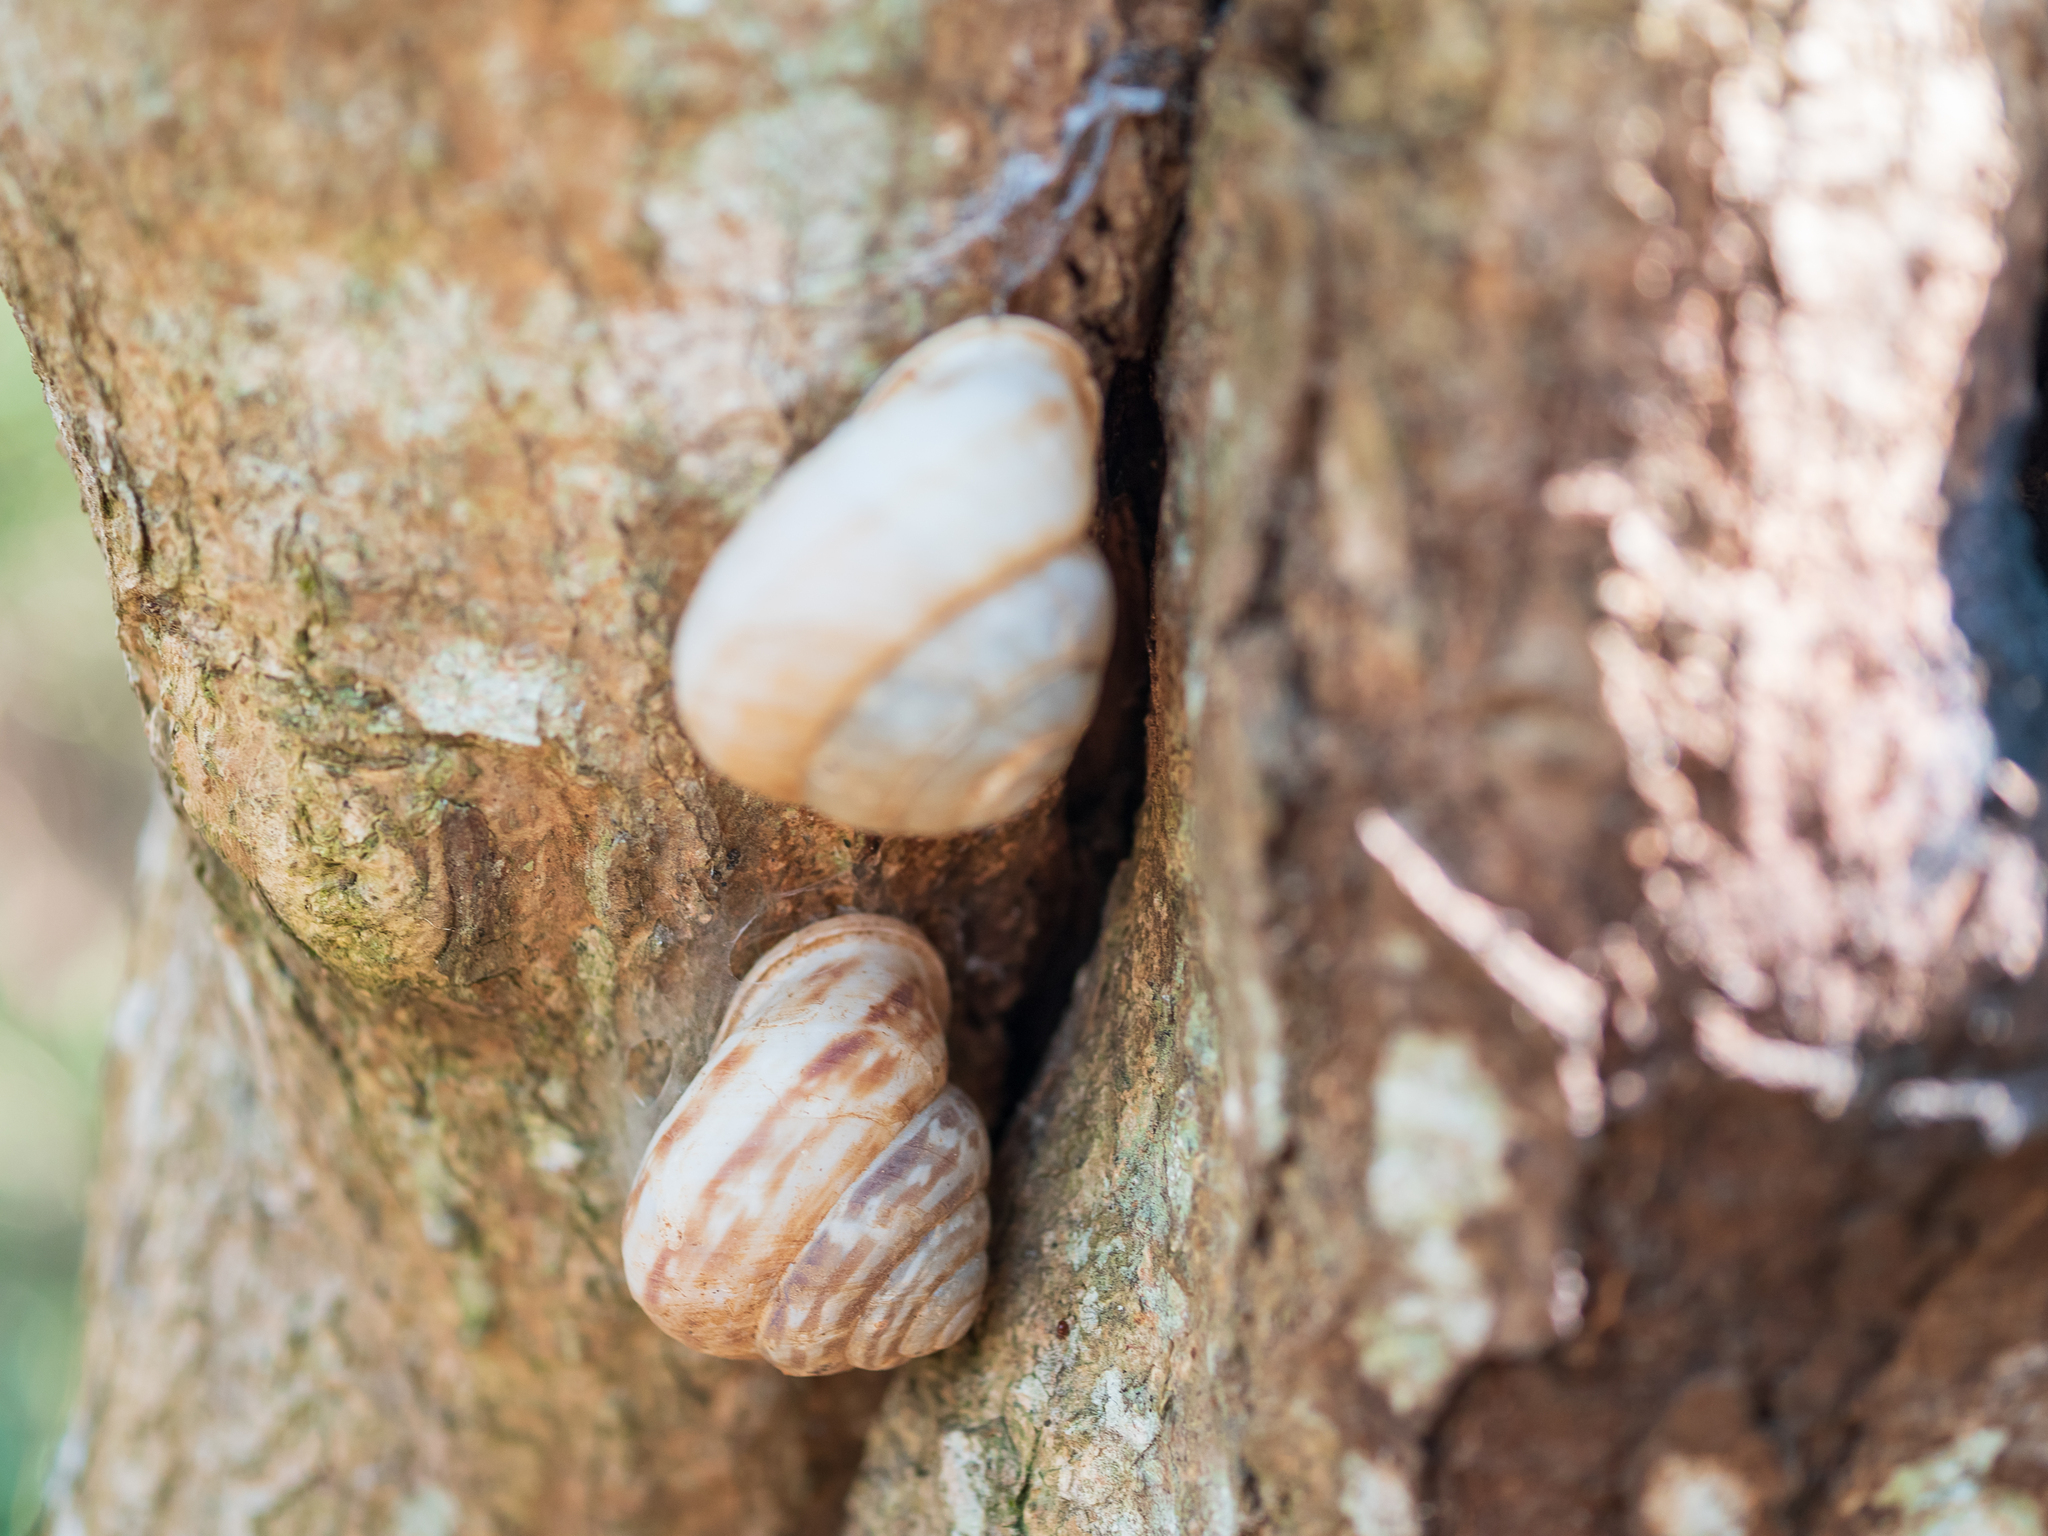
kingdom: Animalia
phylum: Mollusca
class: Gastropoda
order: Stylommatophora
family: Camaenidae
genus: Camaenella
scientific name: Camaenella platyodon
